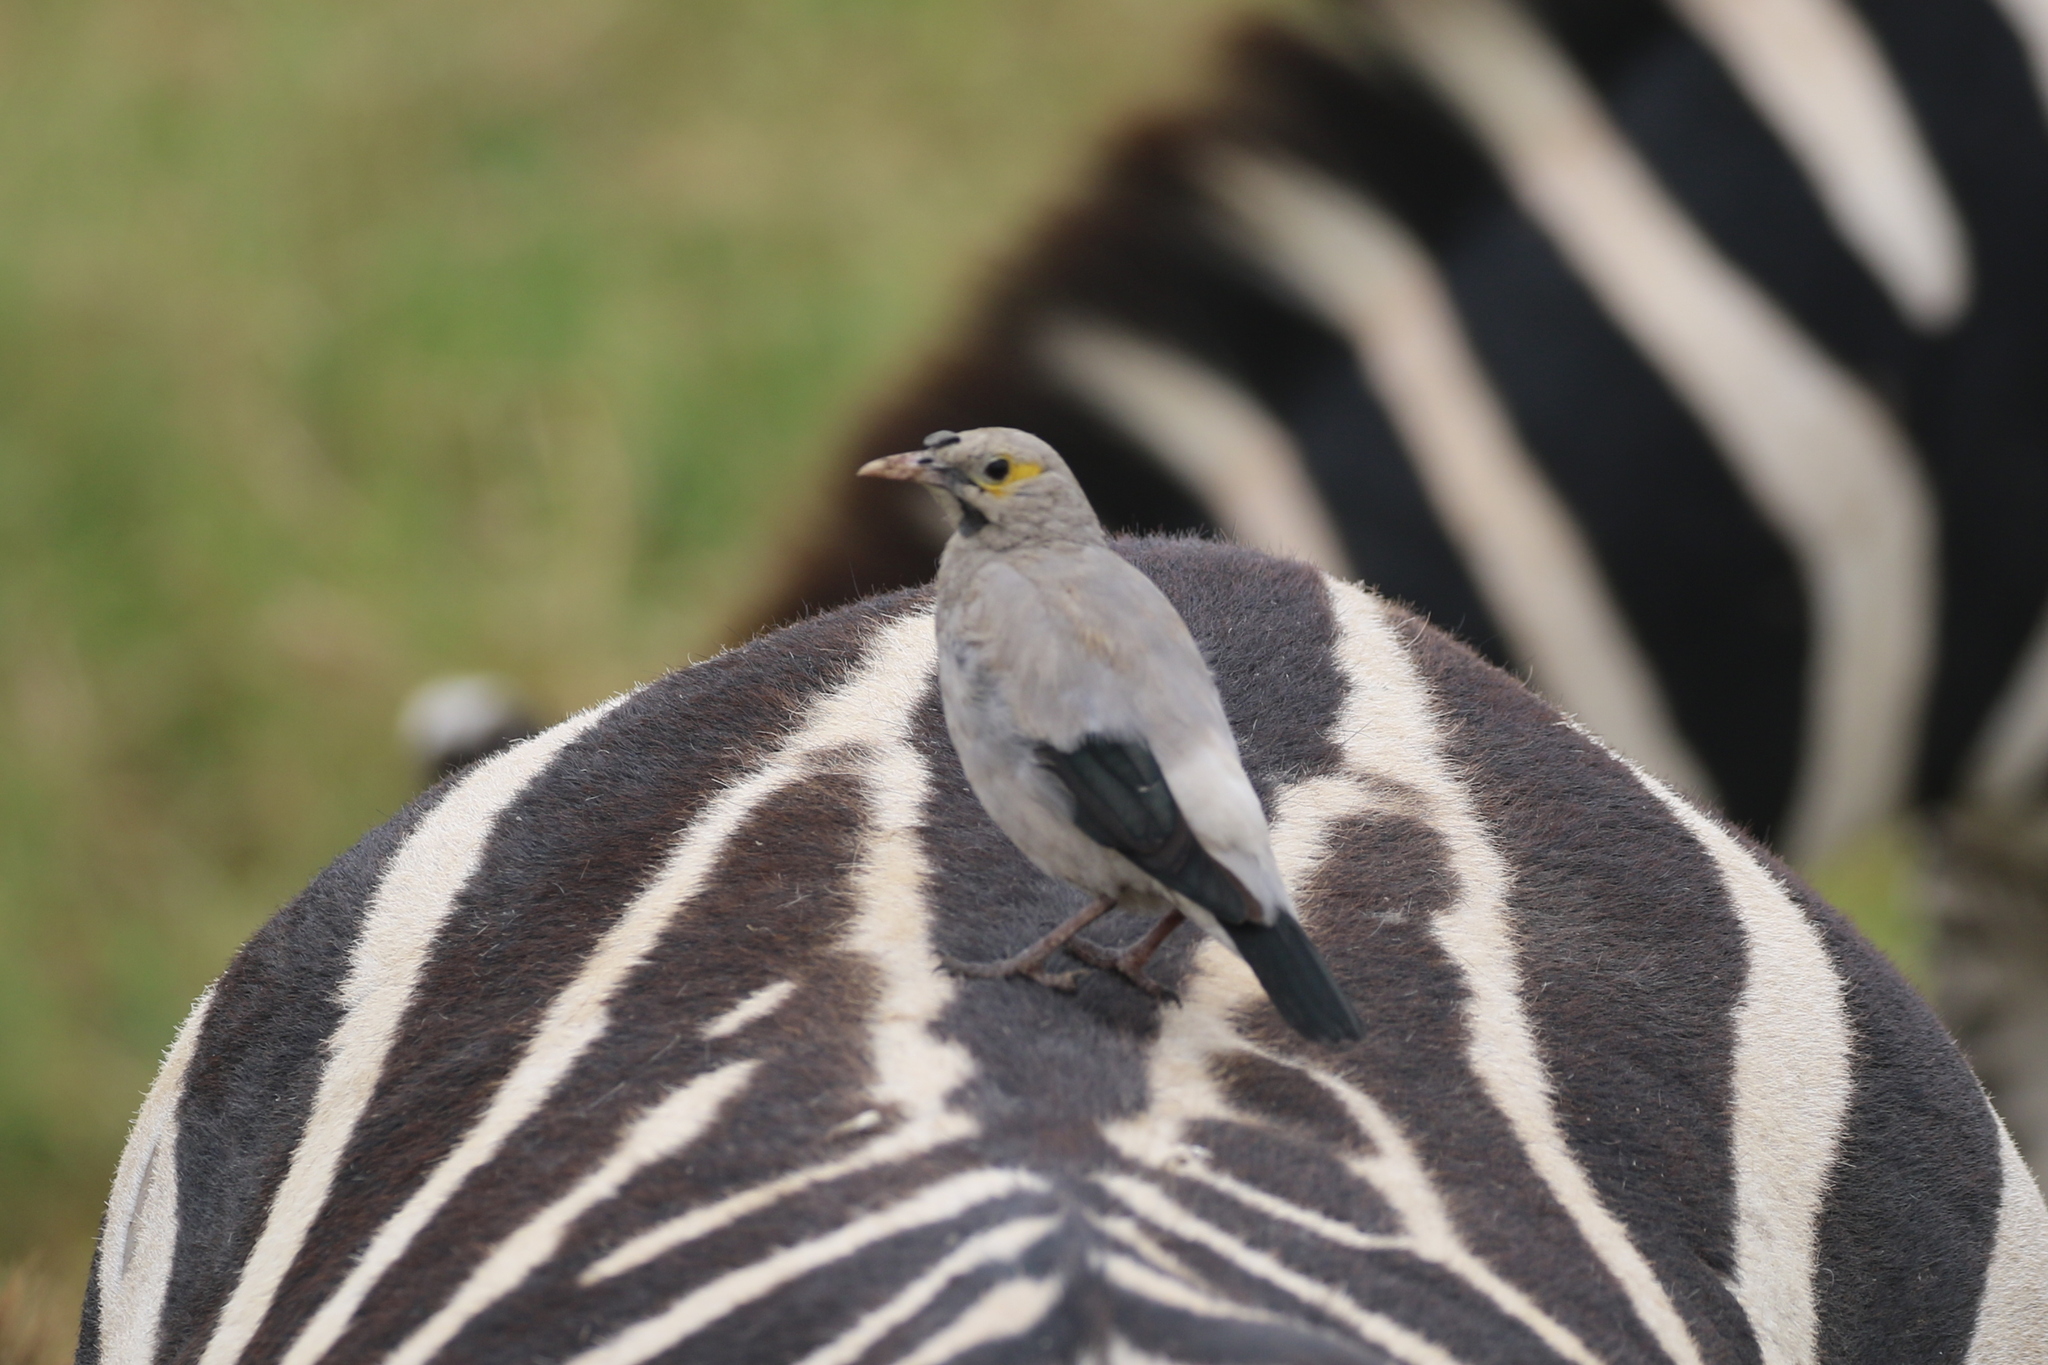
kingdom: Animalia
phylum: Chordata
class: Aves
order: Passeriformes
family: Sturnidae
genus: Creatophora
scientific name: Creatophora cinerea
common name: Wattled starling
